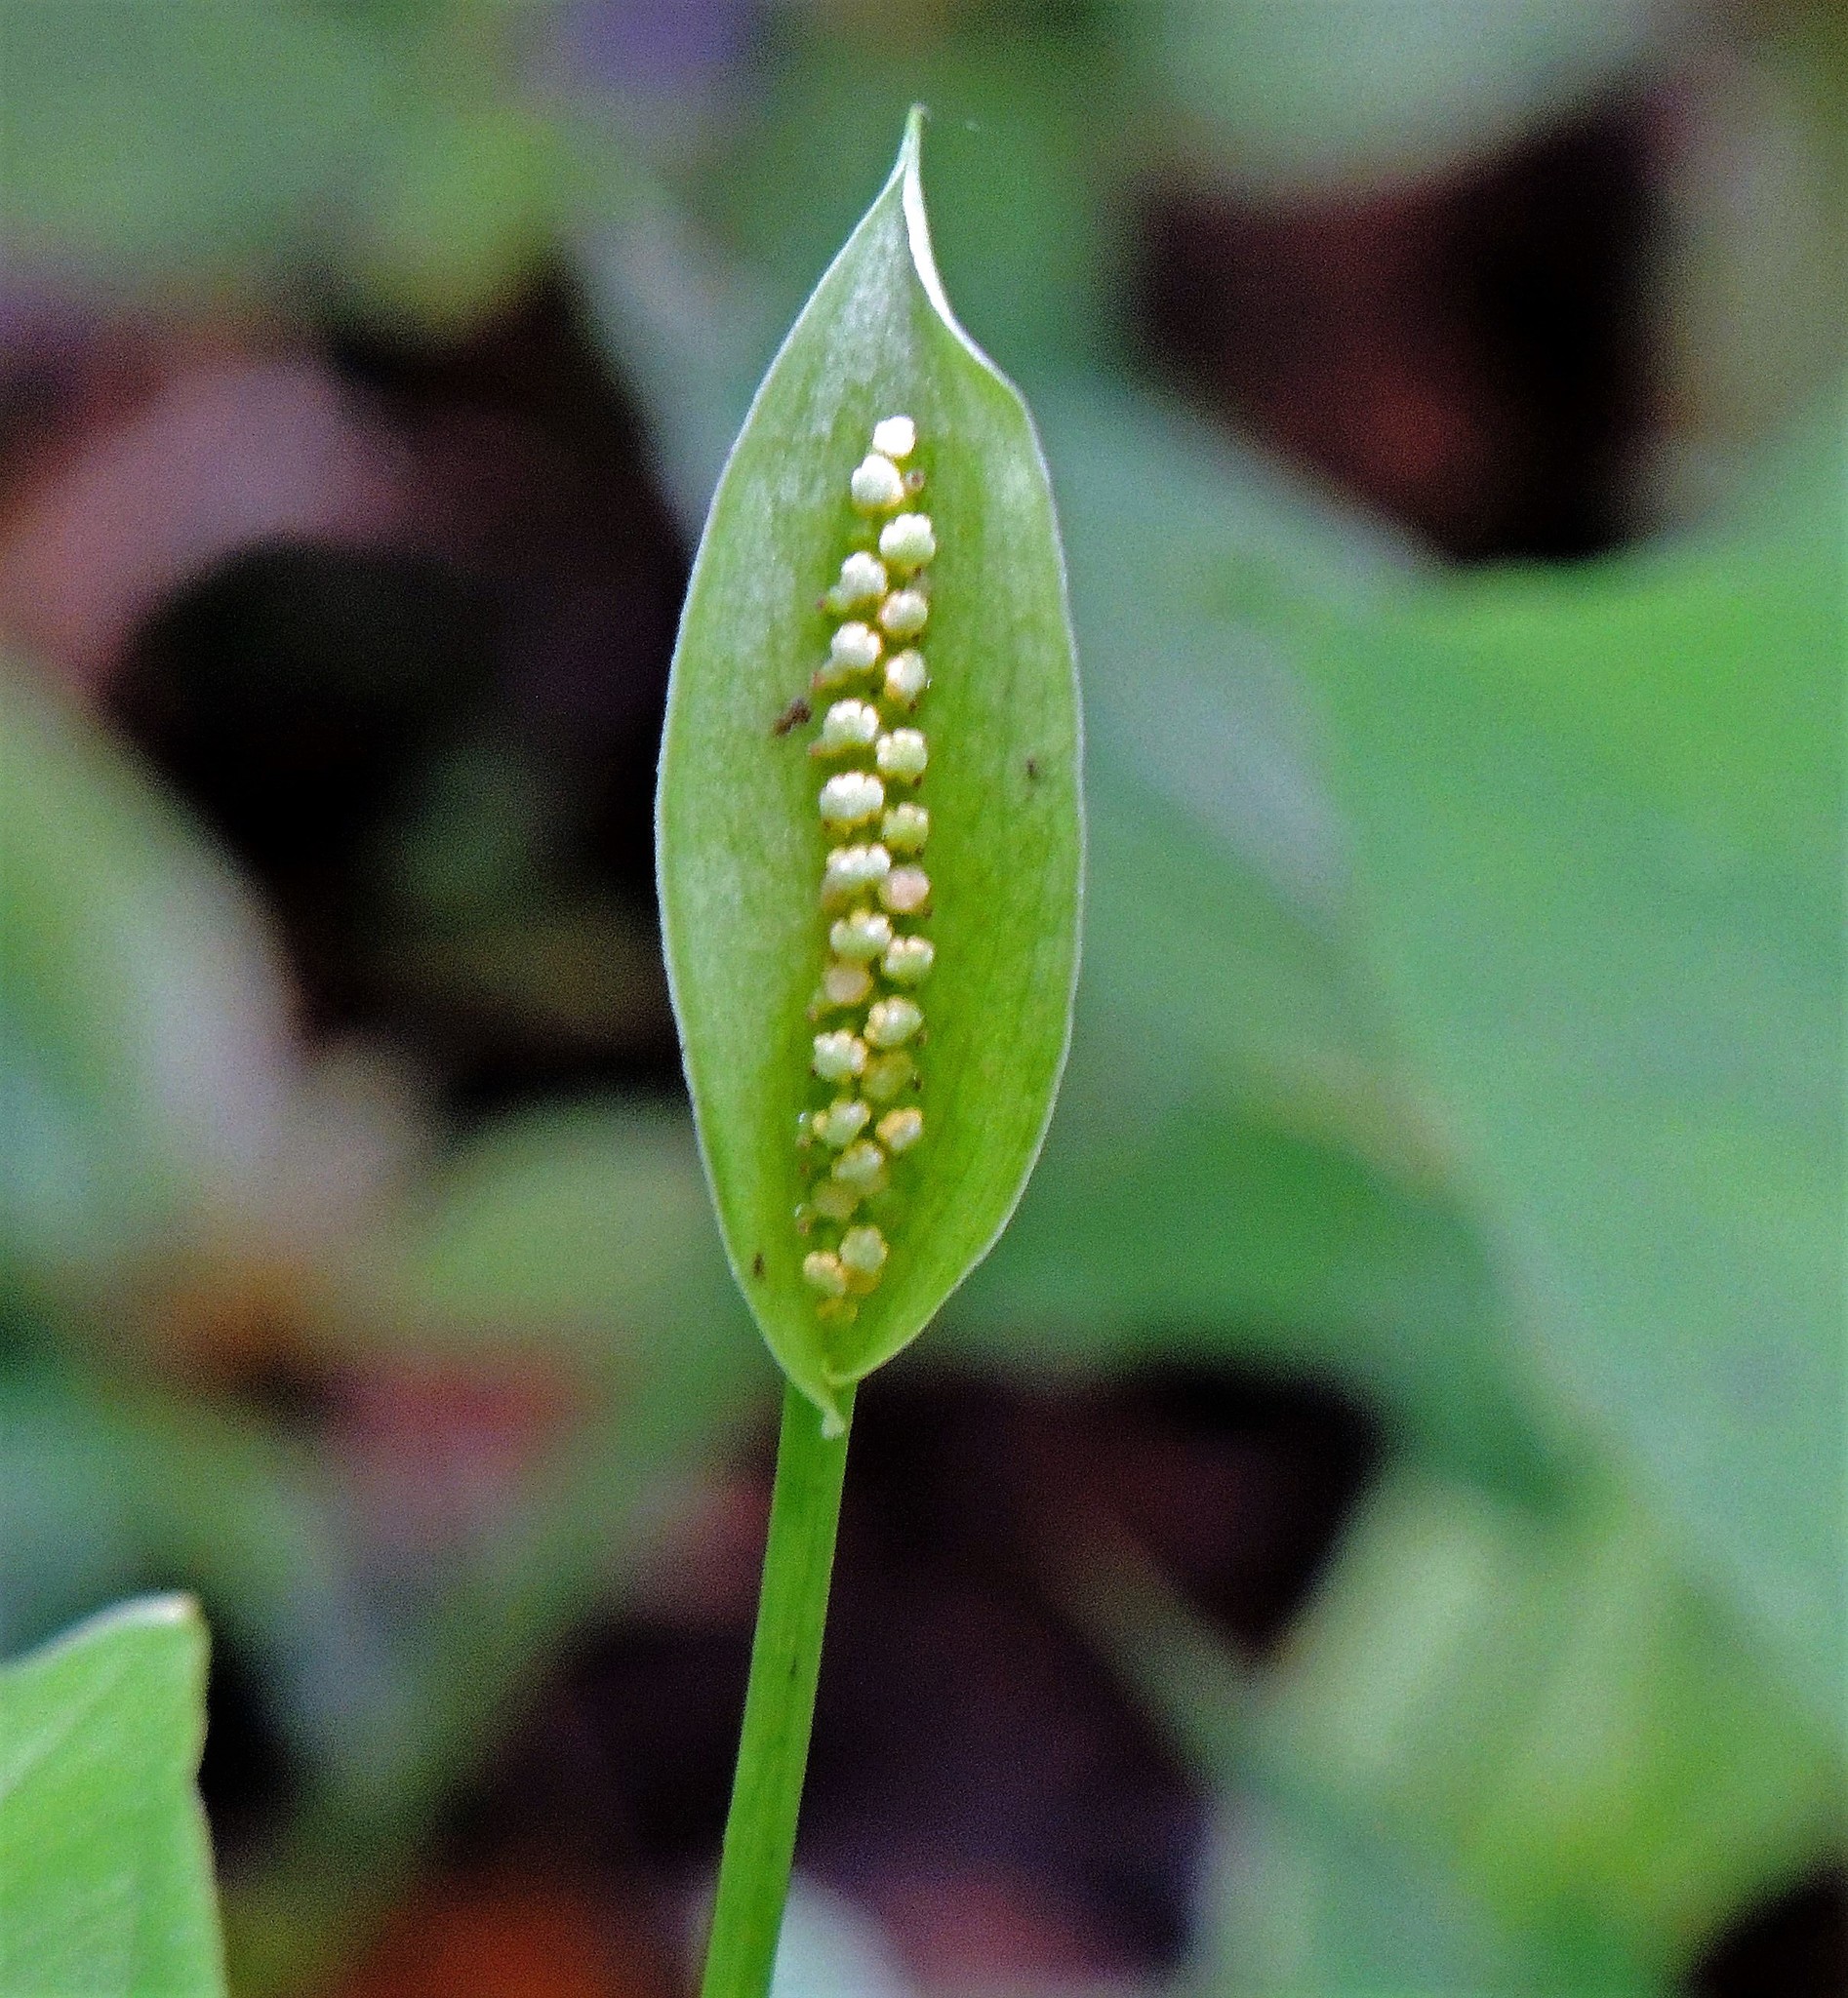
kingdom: Plantae
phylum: Tracheophyta
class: Liliopsida
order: Alismatales
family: Araceae
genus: Spathicarpa
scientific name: Spathicarpa hastifolia
